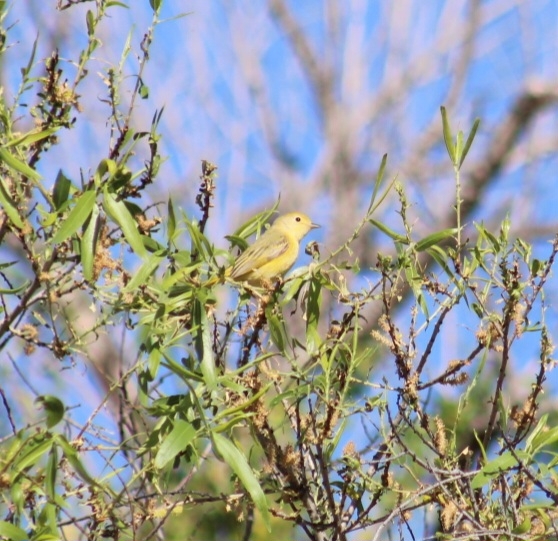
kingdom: Animalia
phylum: Chordata
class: Aves
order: Passeriformes
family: Parulidae
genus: Setophaga
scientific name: Setophaga petechia
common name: Yellow warbler
